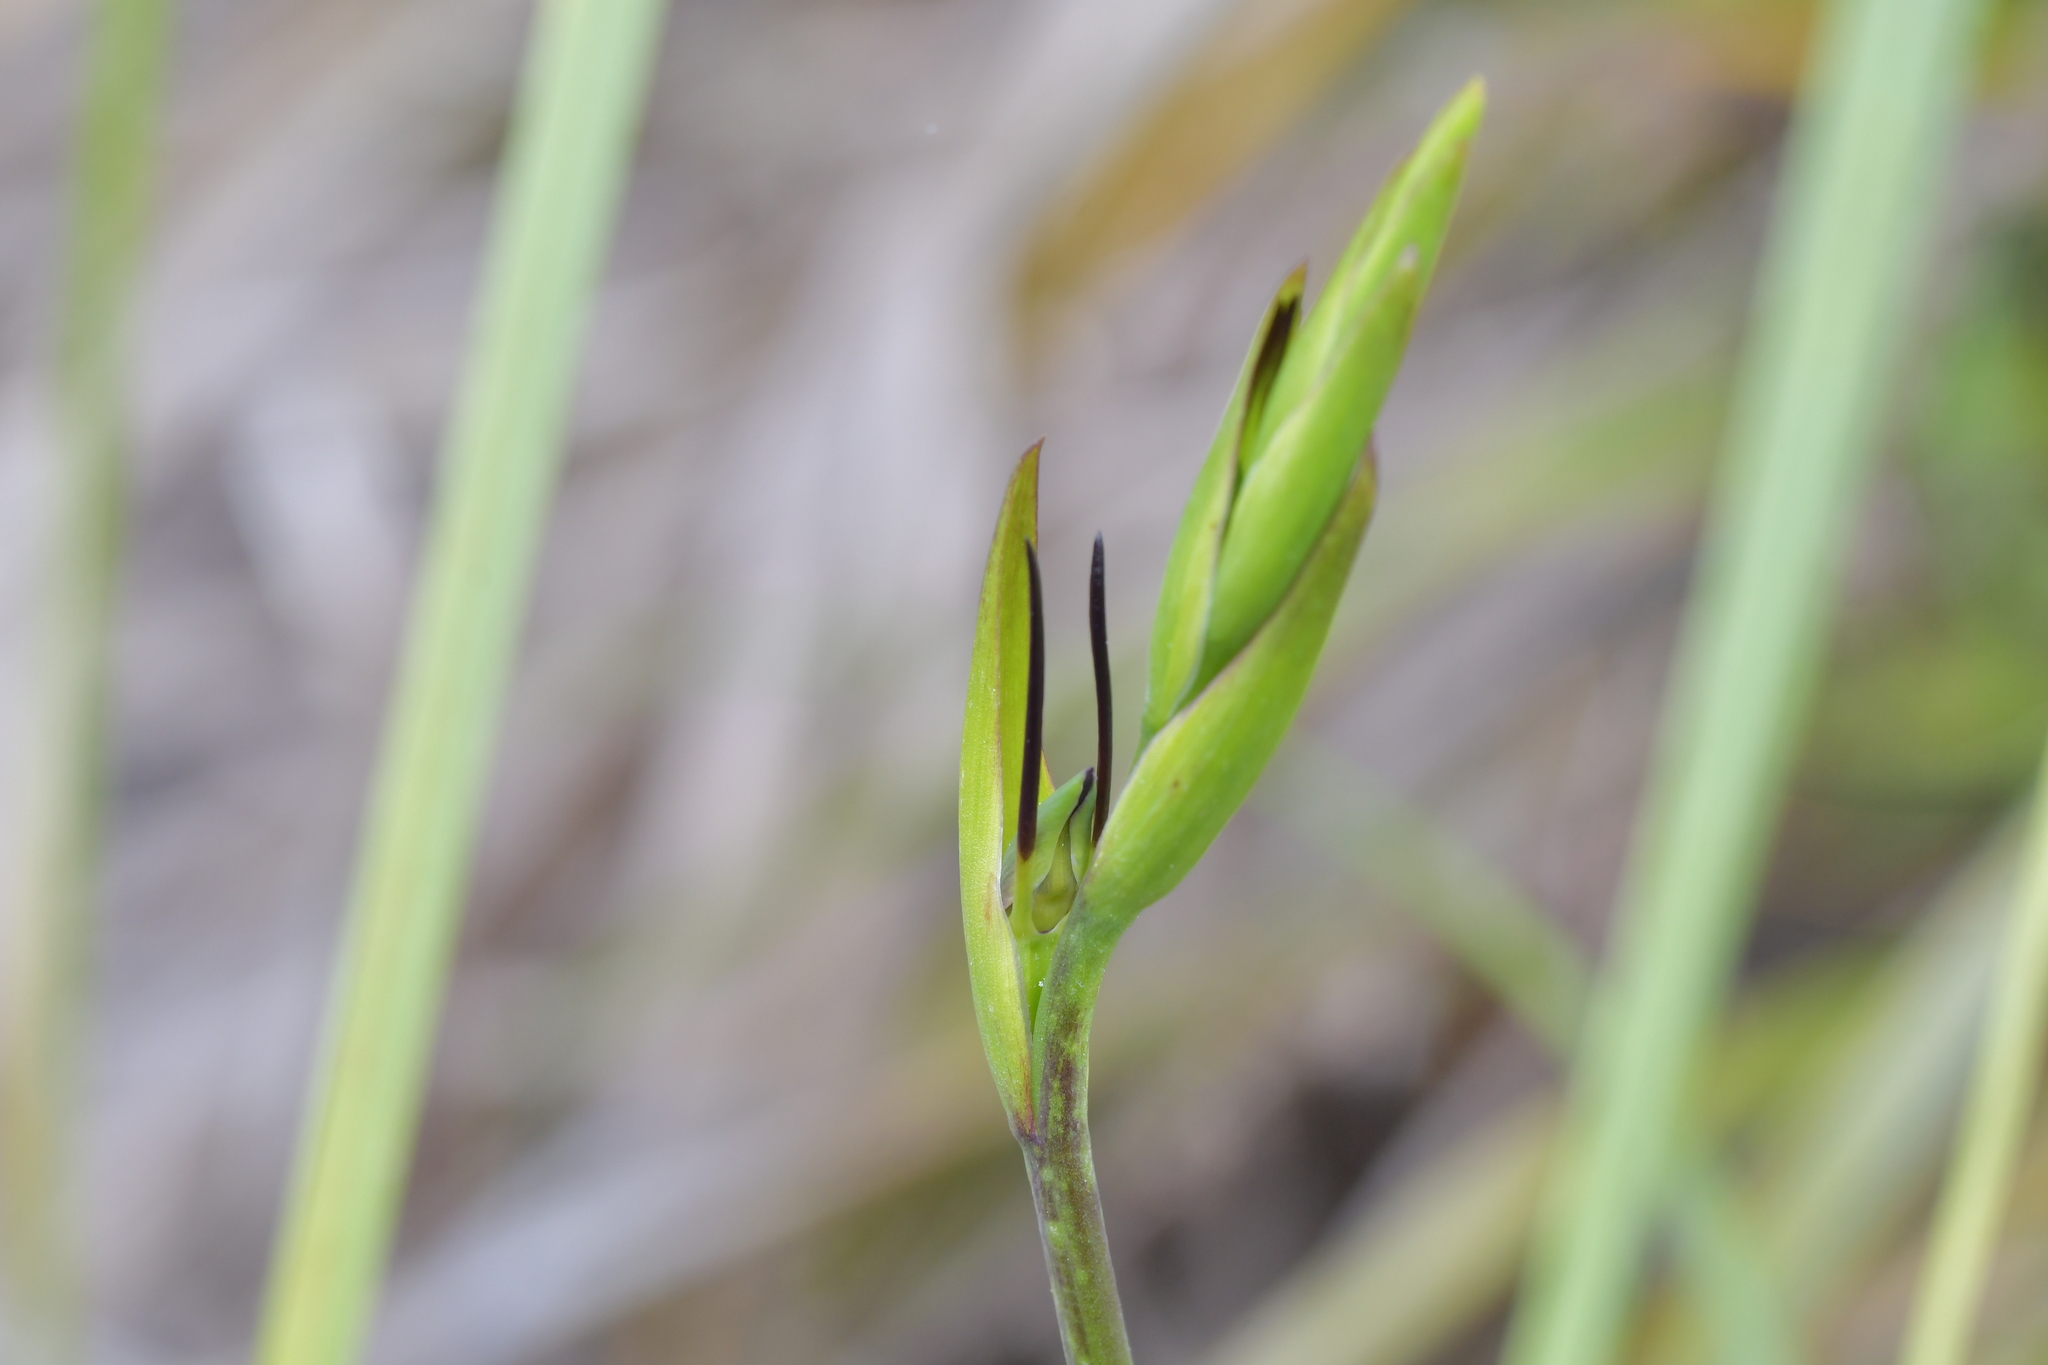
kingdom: Plantae
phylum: Tracheophyta
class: Liliopsida
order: Asparagales
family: Orchidaceae
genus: Orthoceras
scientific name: Orthoceras novae-zeelandiae
